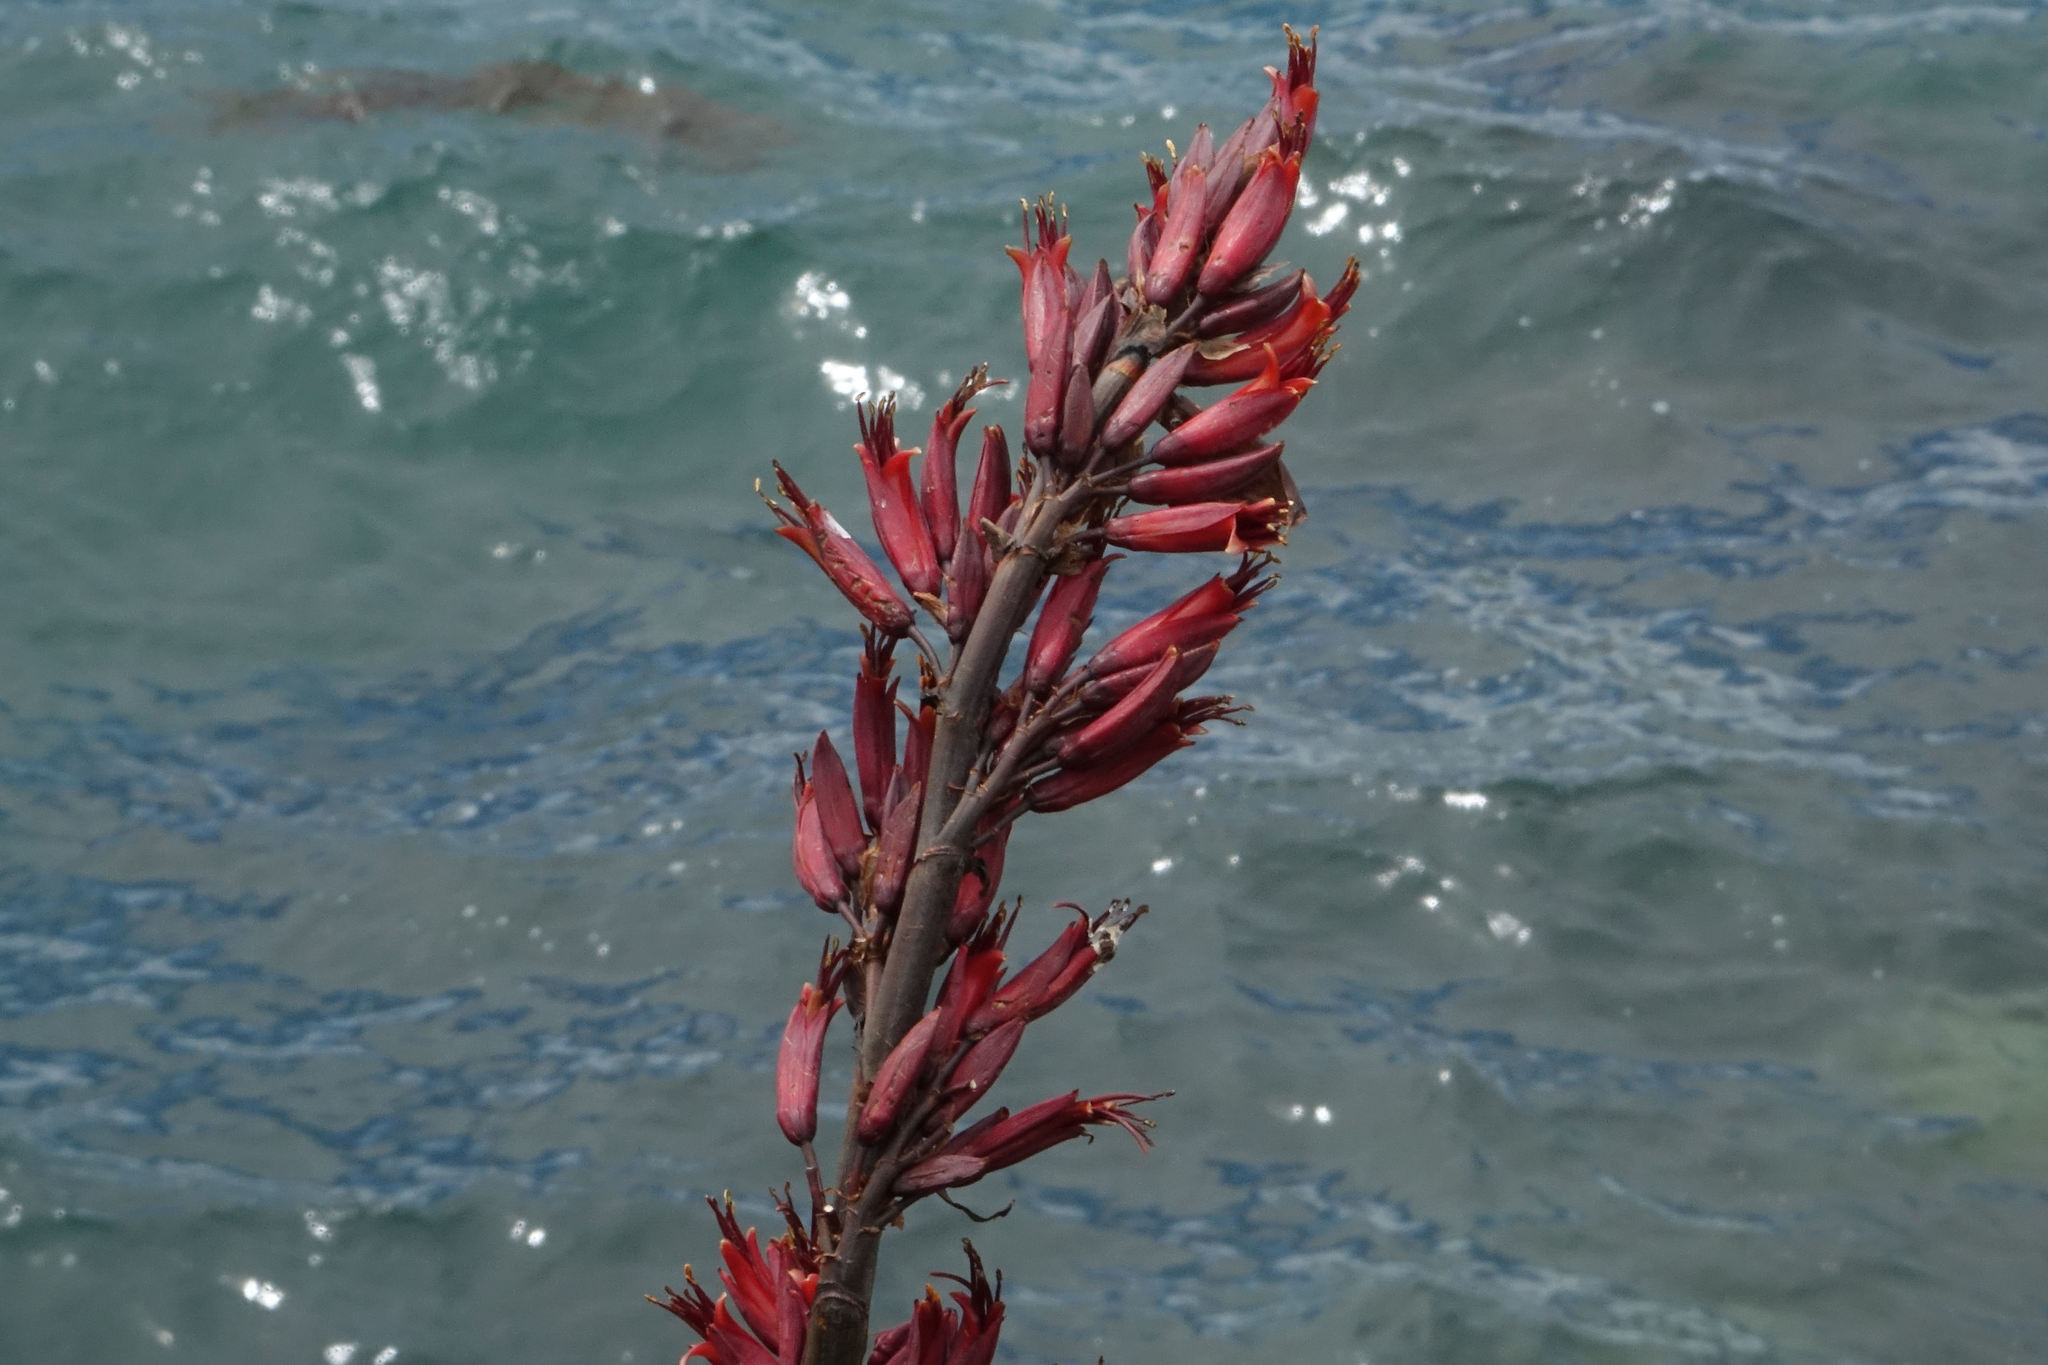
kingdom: Plantae
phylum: Tracheophyta
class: Liliopsida
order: Asparagales
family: Asphodelaceae
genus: Phormium
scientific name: Phormium tenax
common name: New zealand flax
